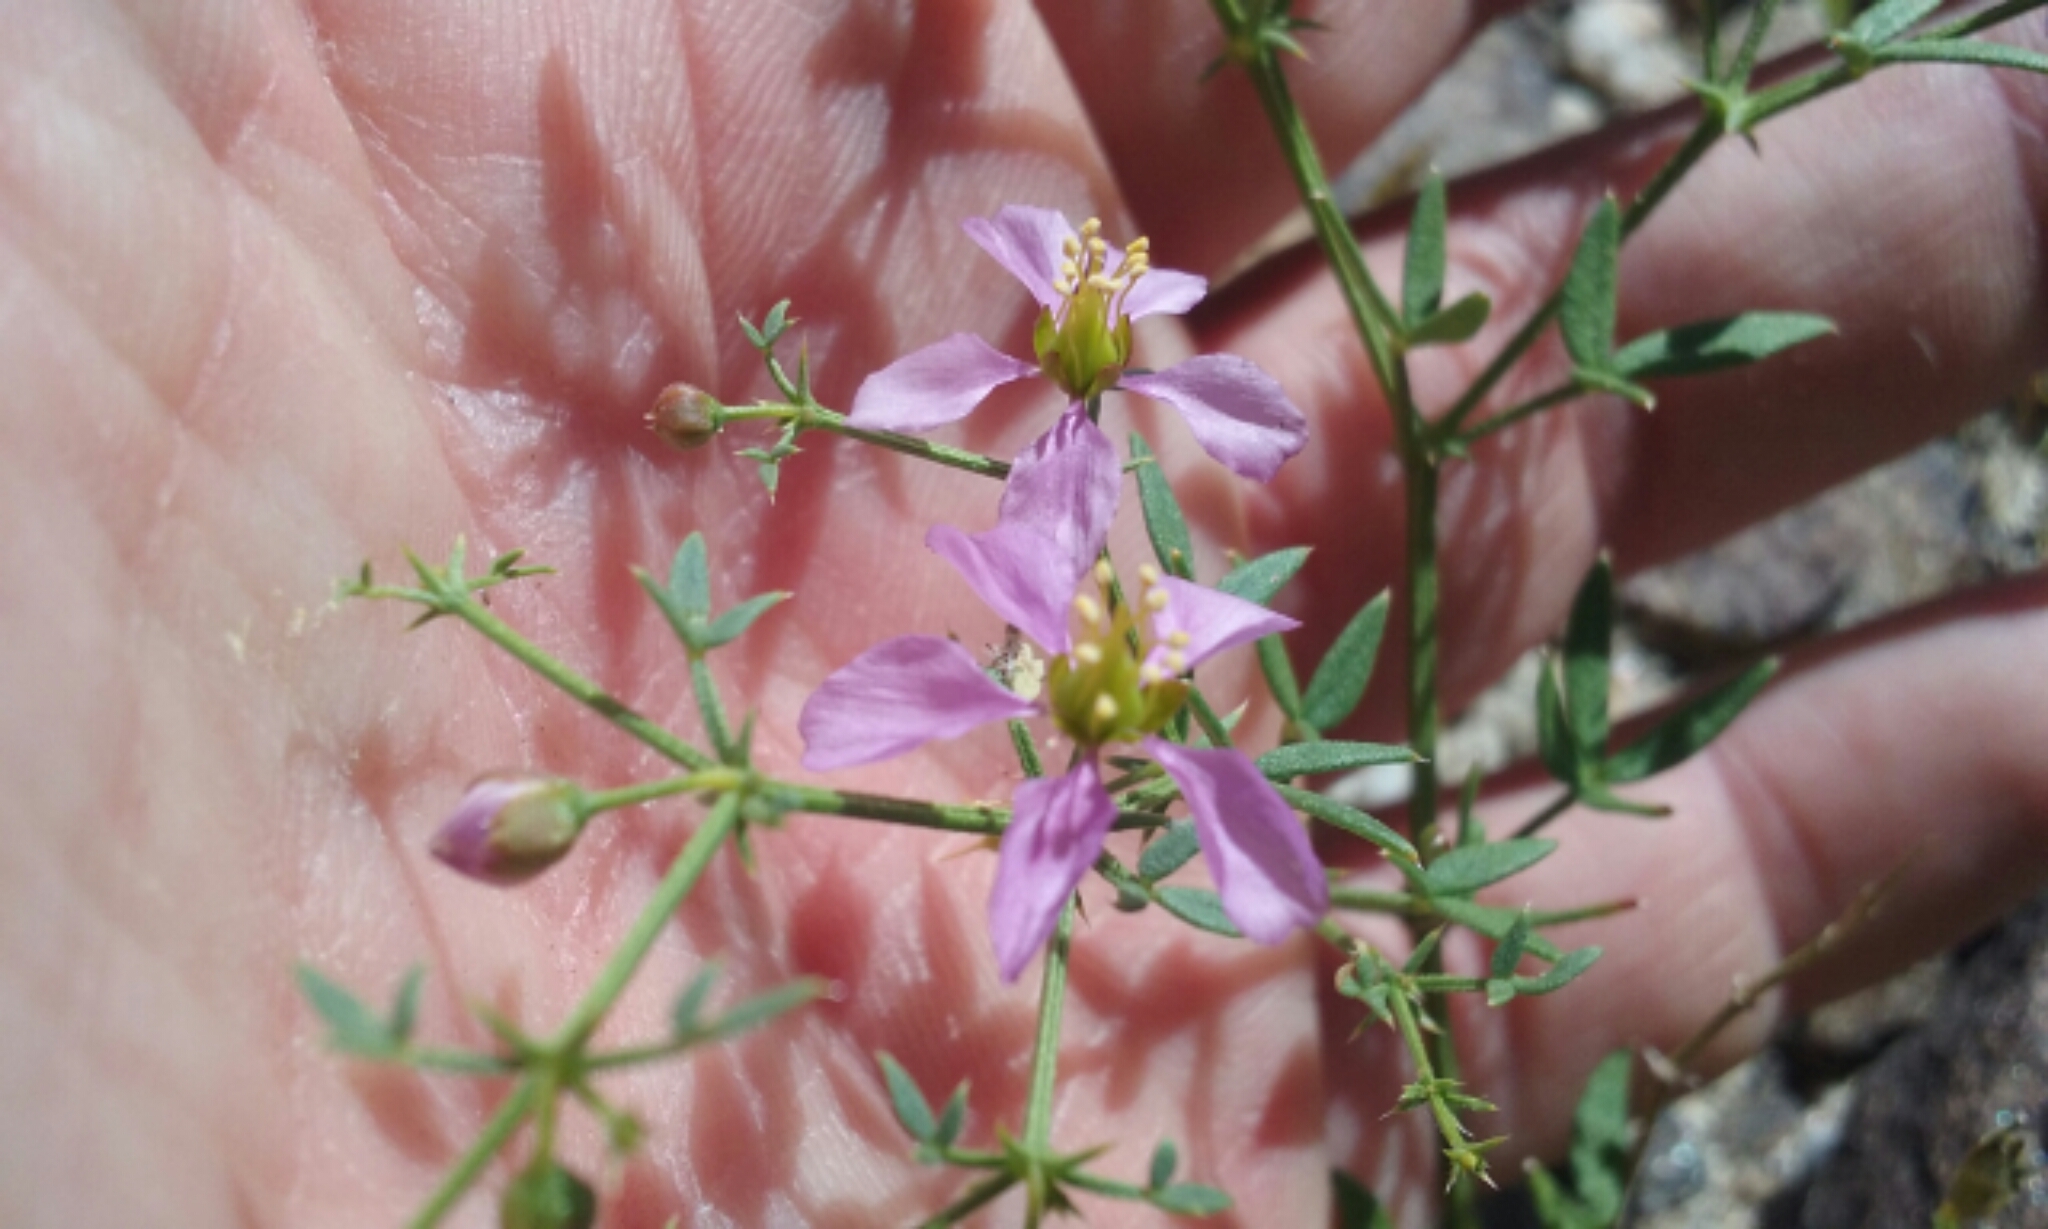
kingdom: Plantae
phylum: Tracheophyta
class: Magnoliopsida
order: Zygophyllales
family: Zygophyllaceae
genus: Fagonia
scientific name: Fagonia laevis
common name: California fagonbush
